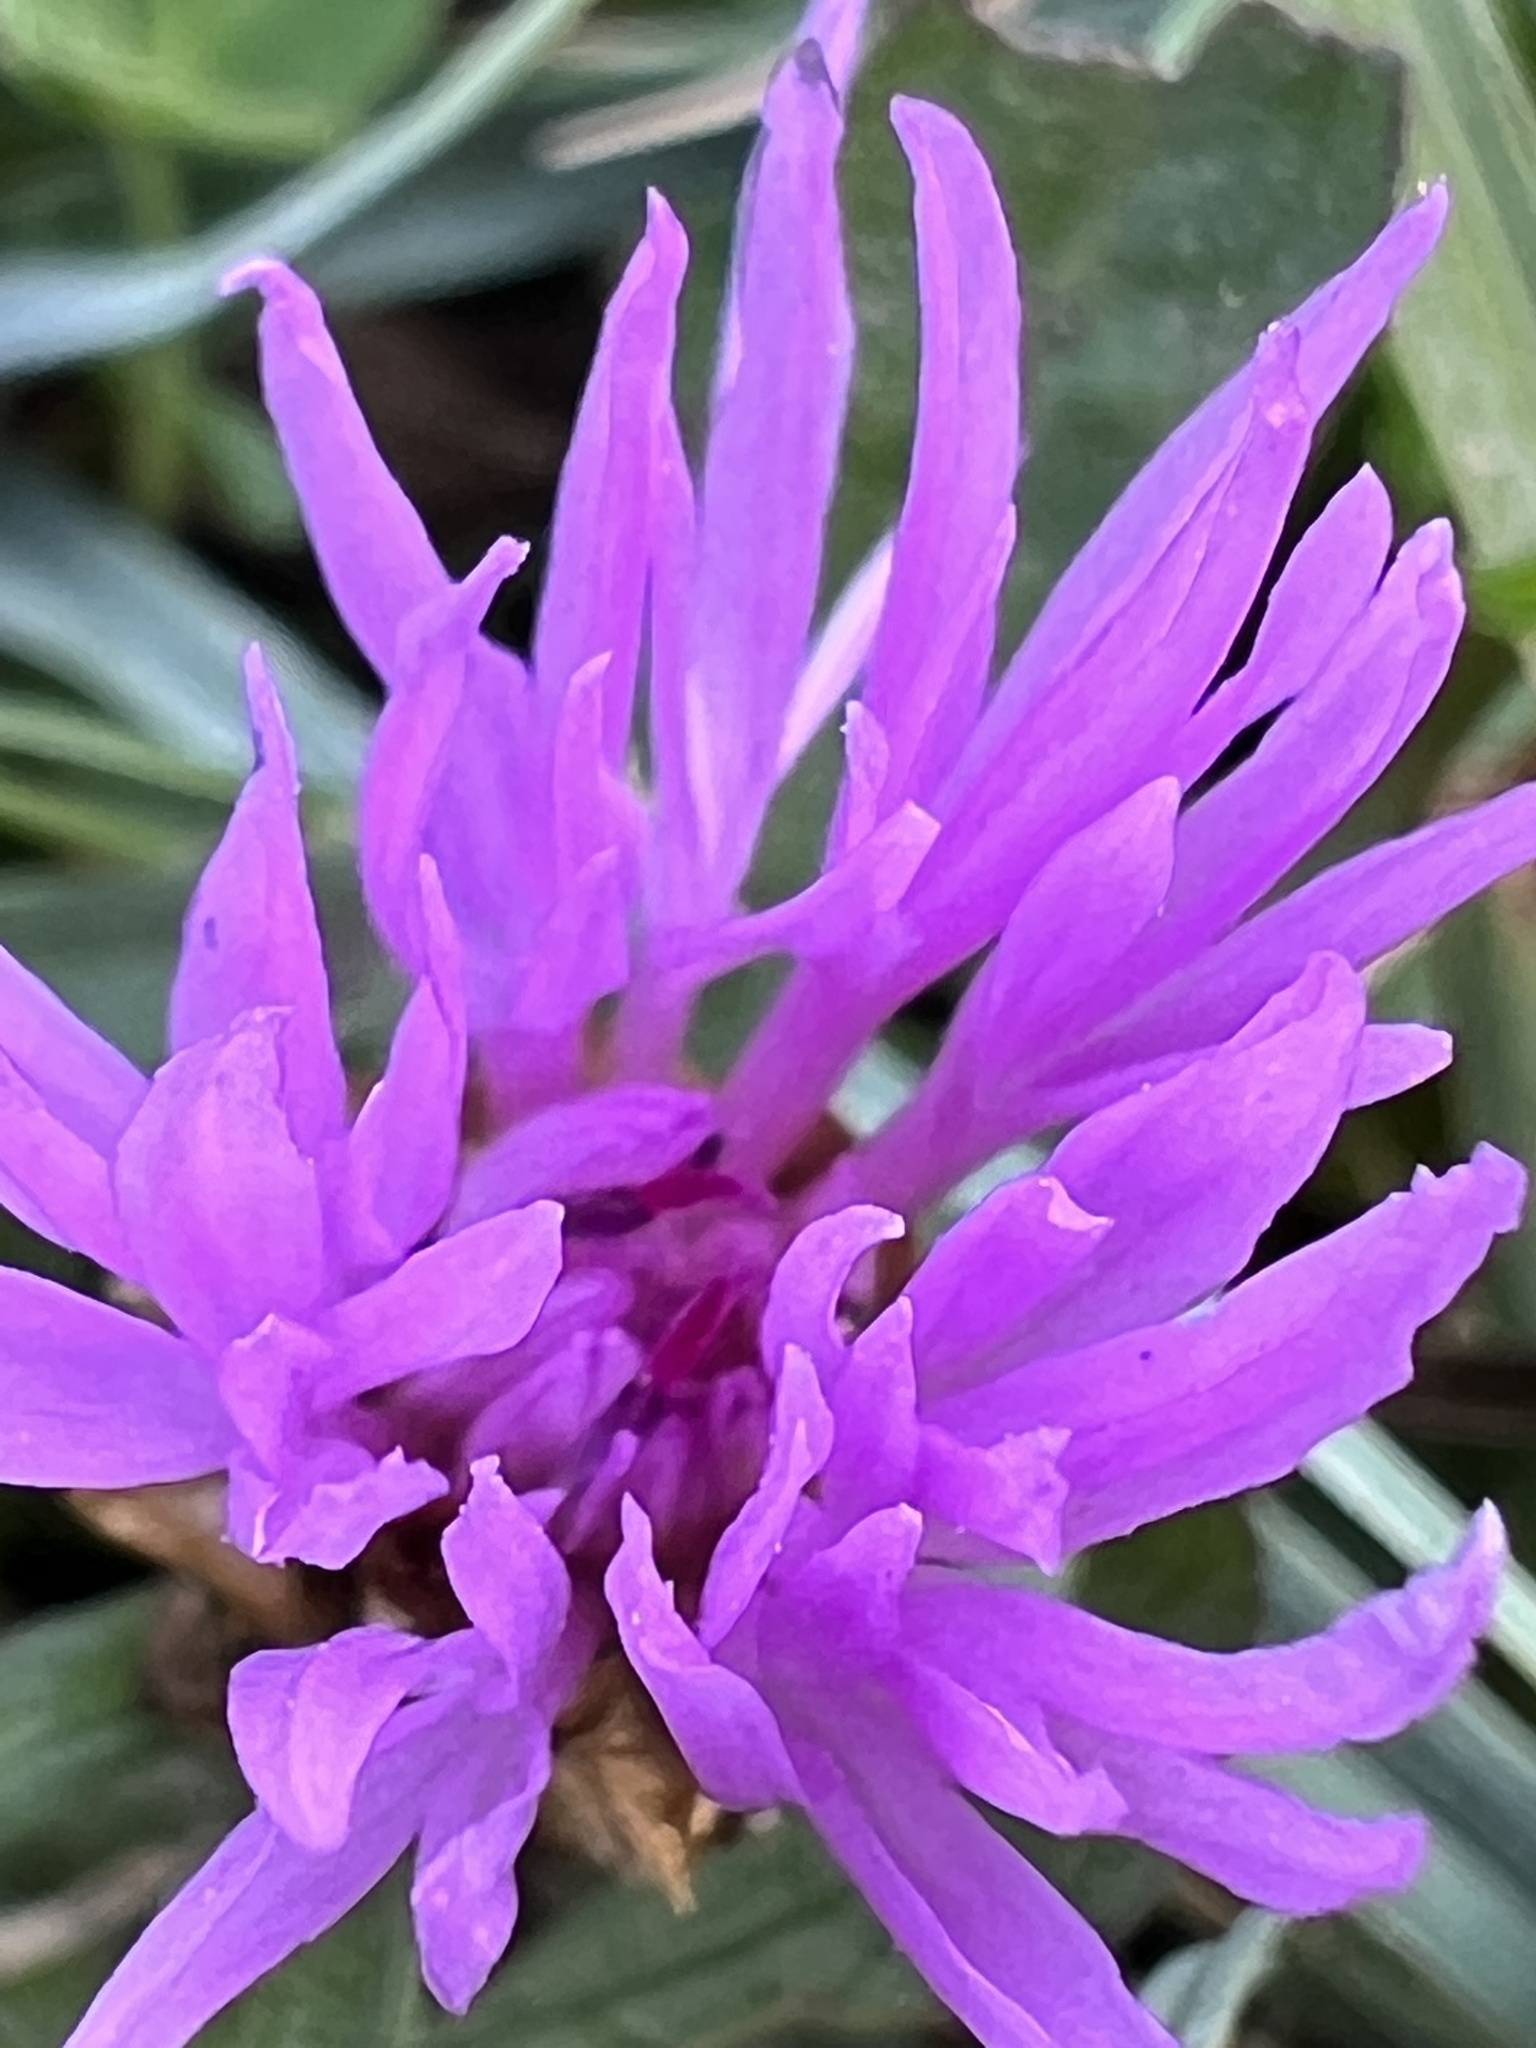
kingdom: Plantae
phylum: Tracheophyta
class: Magnoliopsida
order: Asterales
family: Asteraceae
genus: Centaurea
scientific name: Centaurea jacea
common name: Brown knapweed
